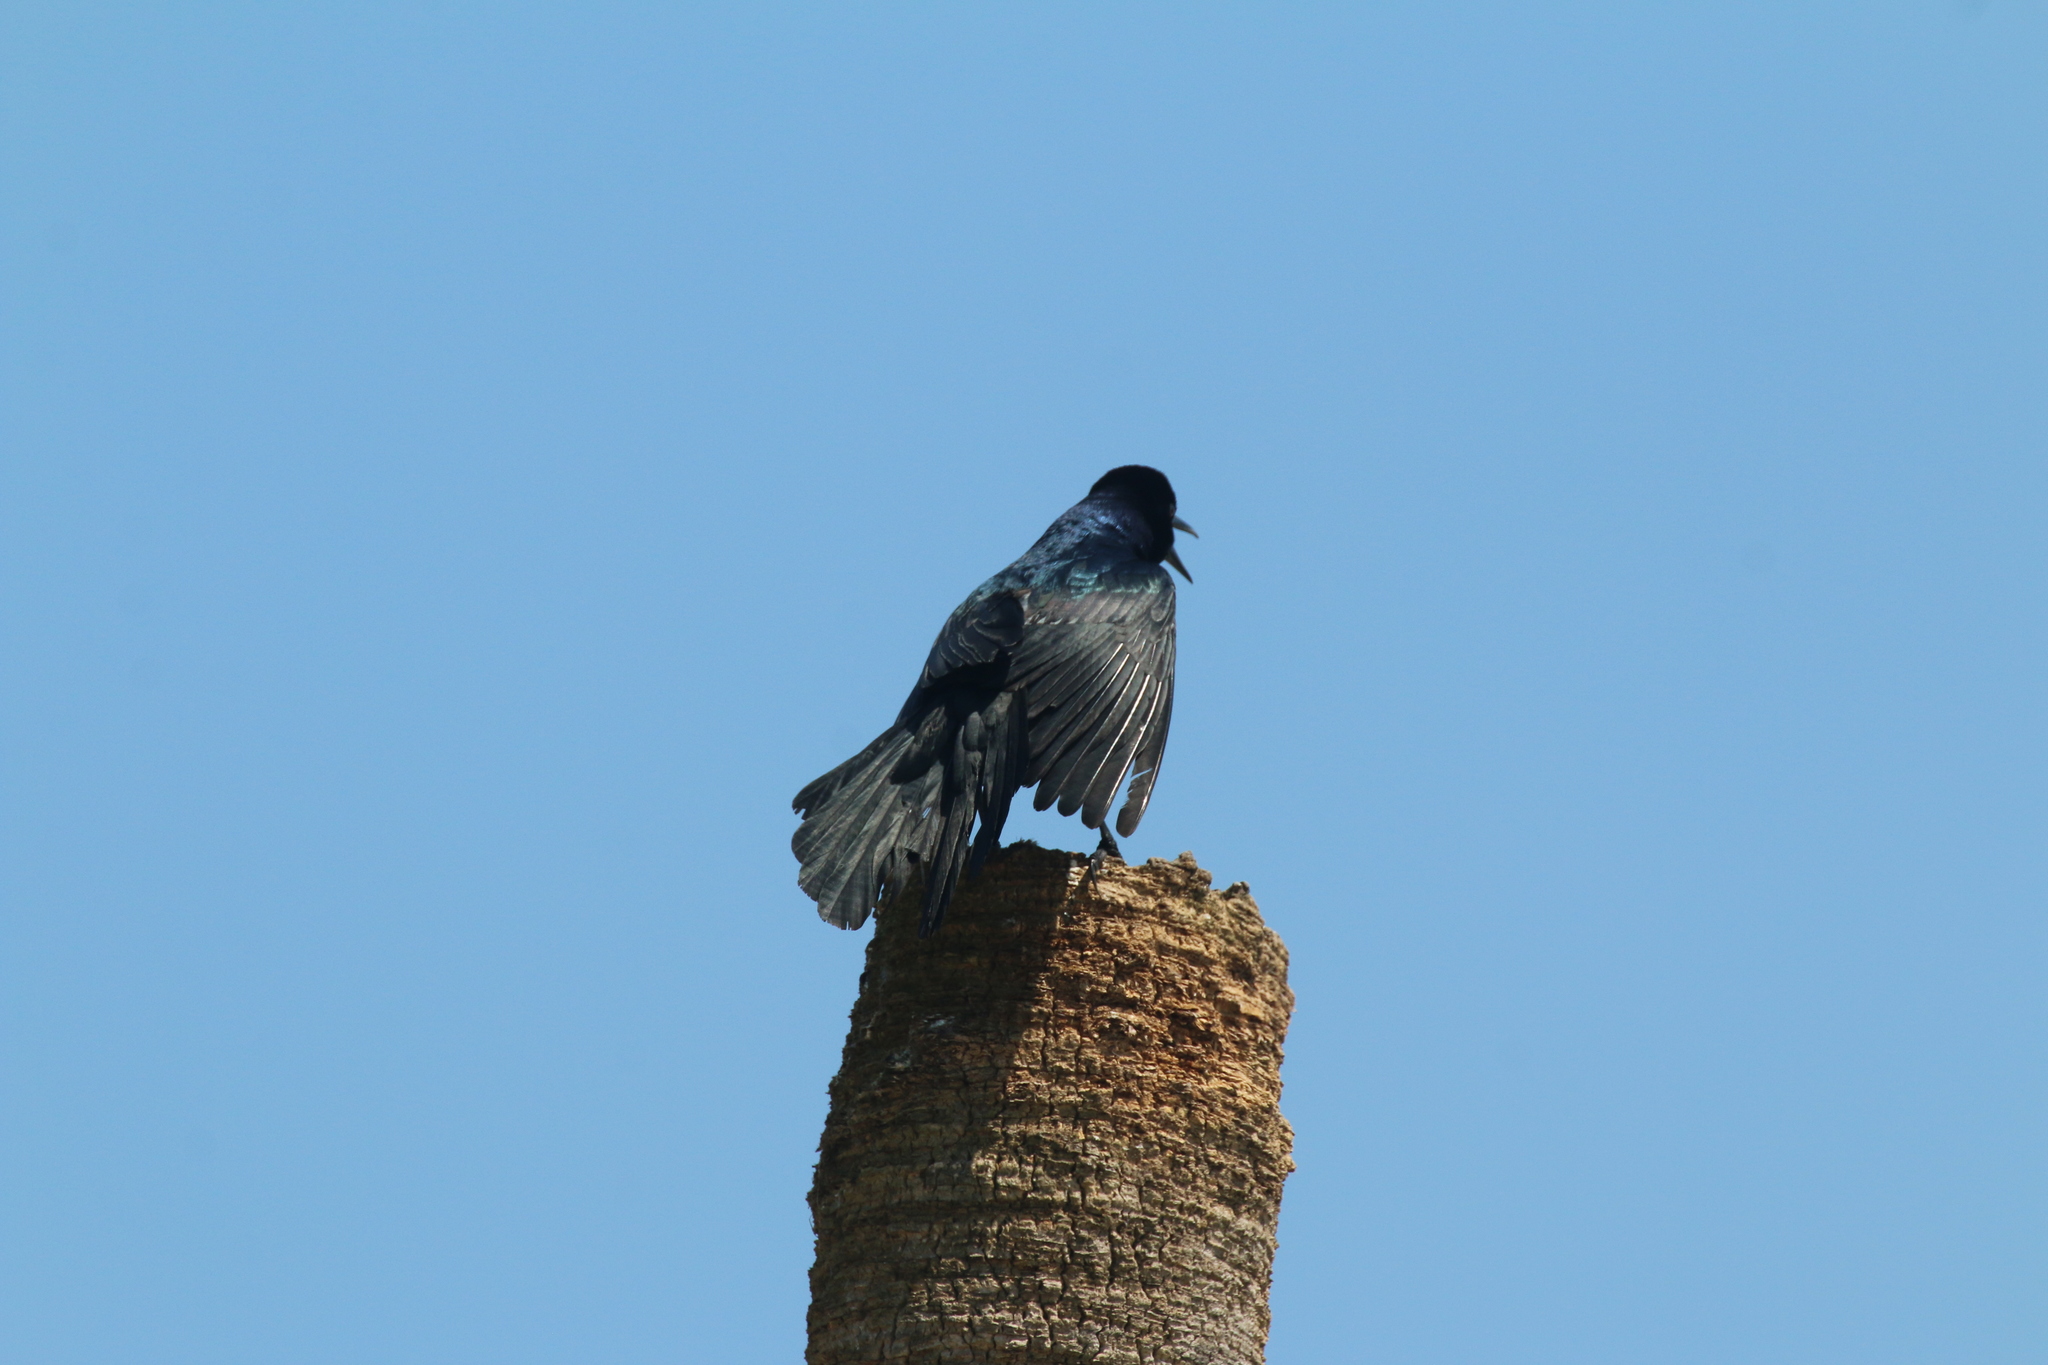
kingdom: Animalia
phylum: Chordata
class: Aves
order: Passeriformes
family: Icteridae
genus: Quiscalus
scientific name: Quiscalus major
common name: Boat-tailed grackle
